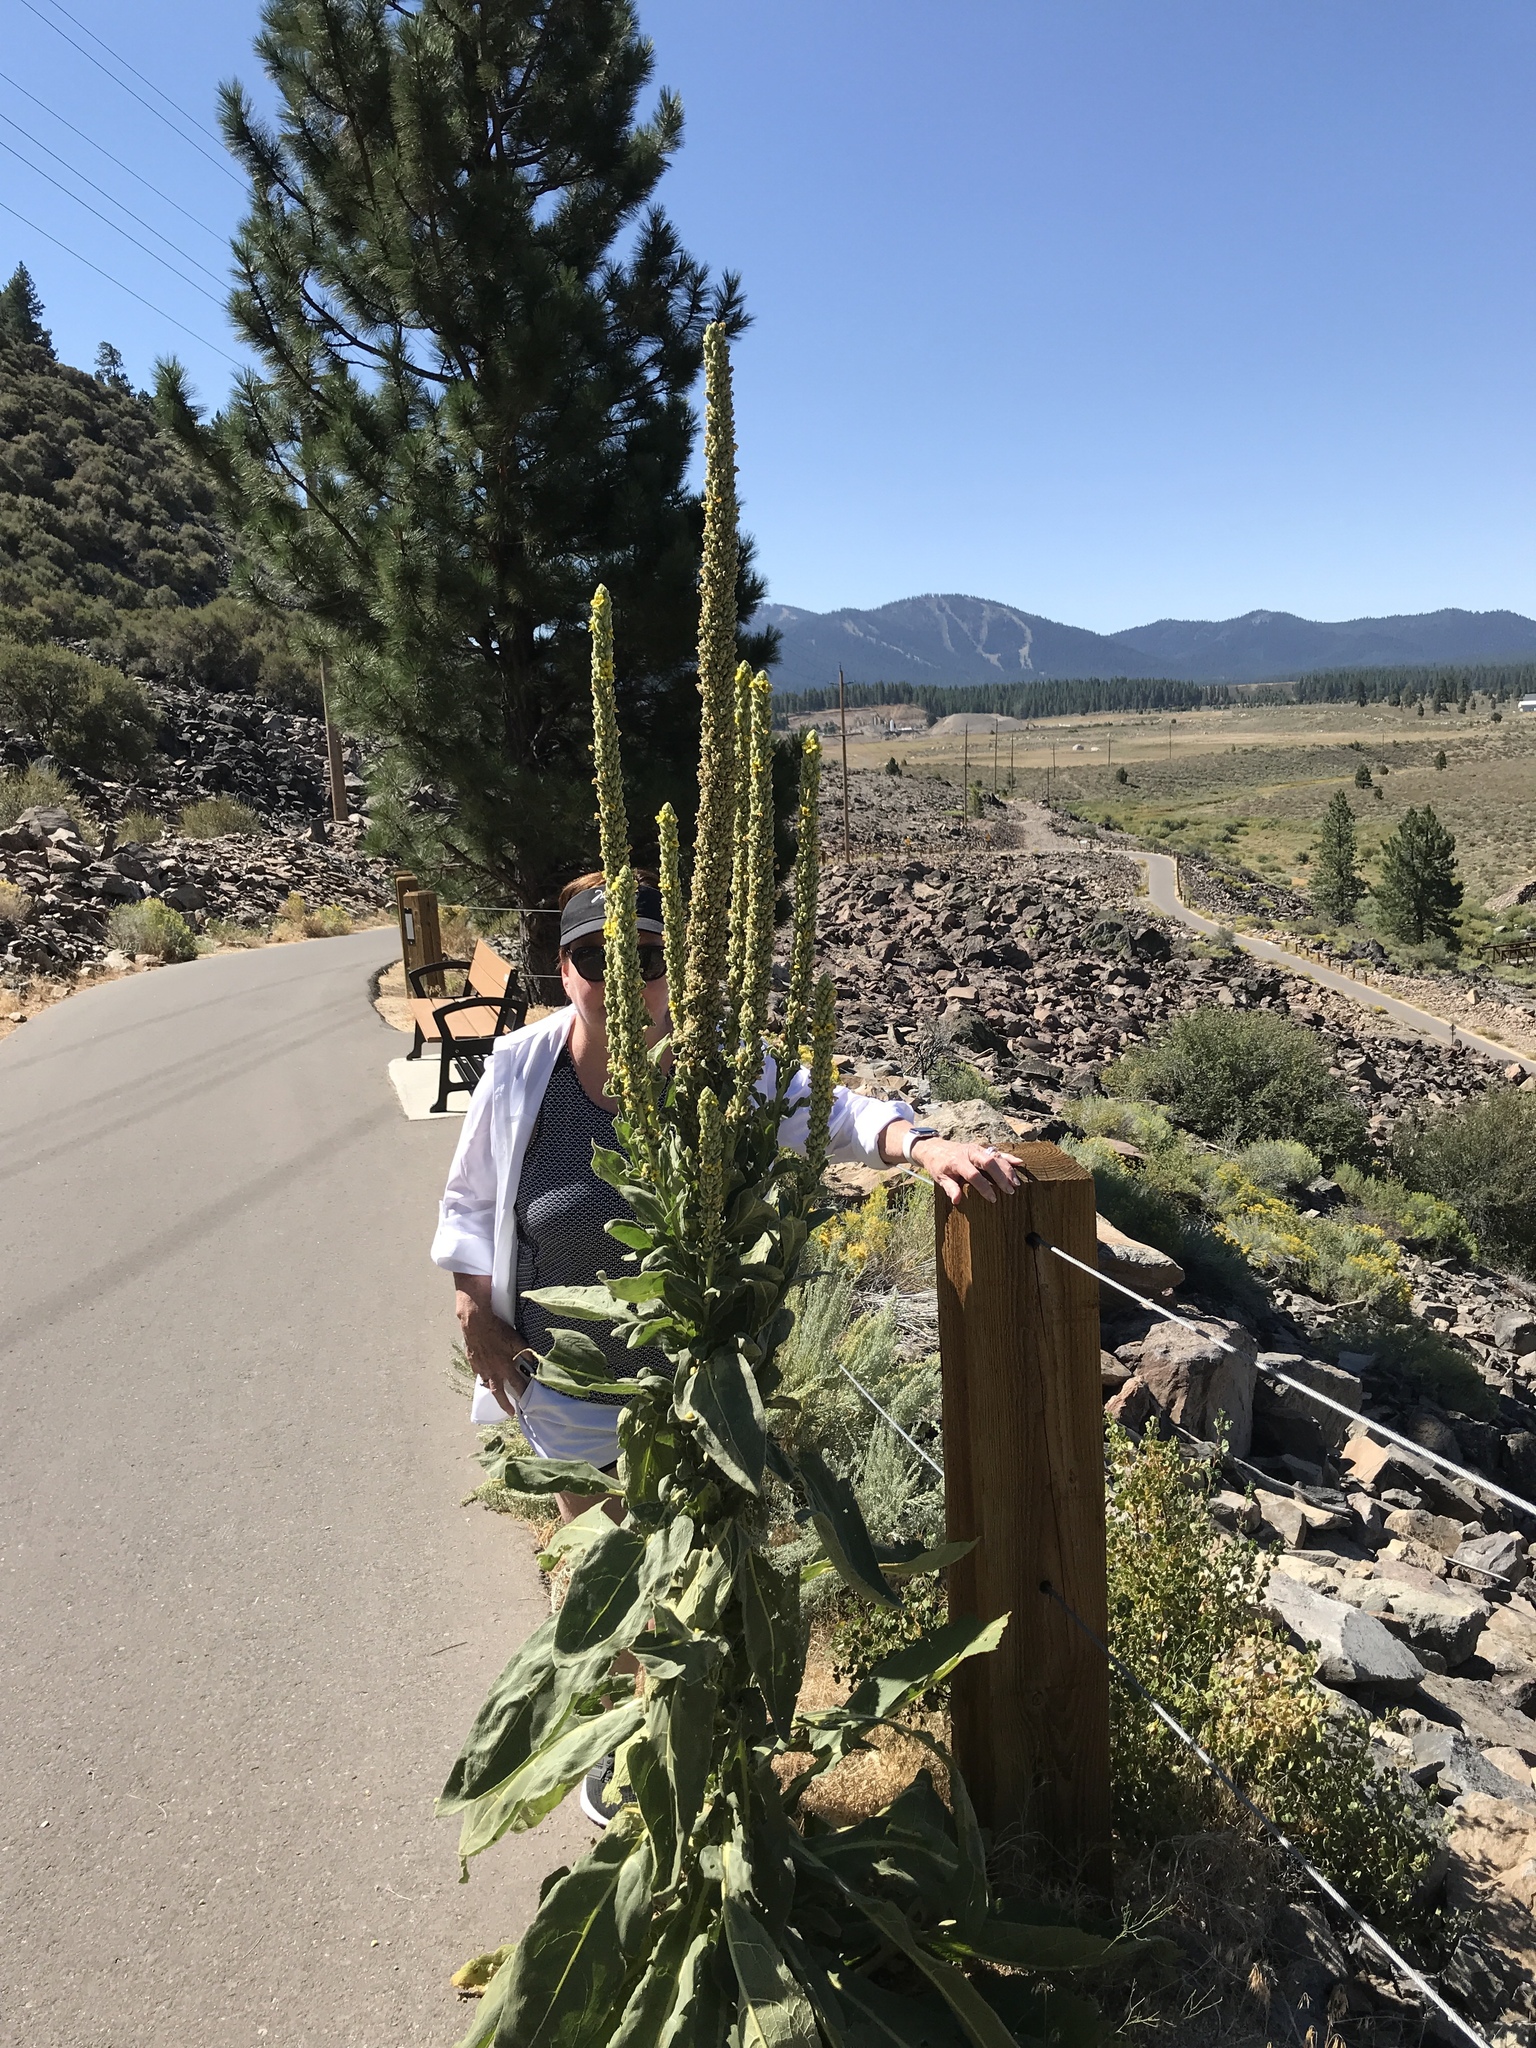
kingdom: Plantae
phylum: Tracheophyta
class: Magnoliopsida
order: Lamiales
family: Scrophulariaceae
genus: Verbascum
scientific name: Verbascum thapsus
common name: Common mullein
